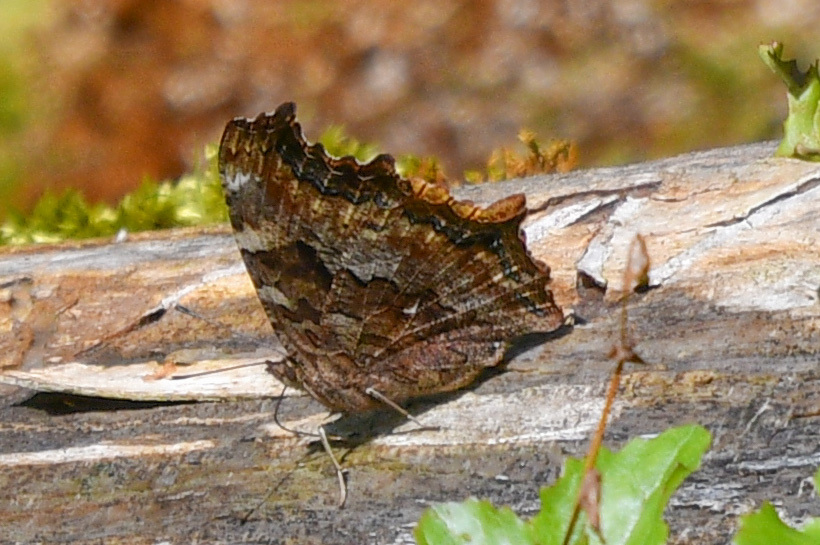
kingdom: Animalia
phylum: Arthropoda
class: Insecta
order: Lepidoptera
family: Nymphalidae
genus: Polygonia
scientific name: Polygonia vaualbum
